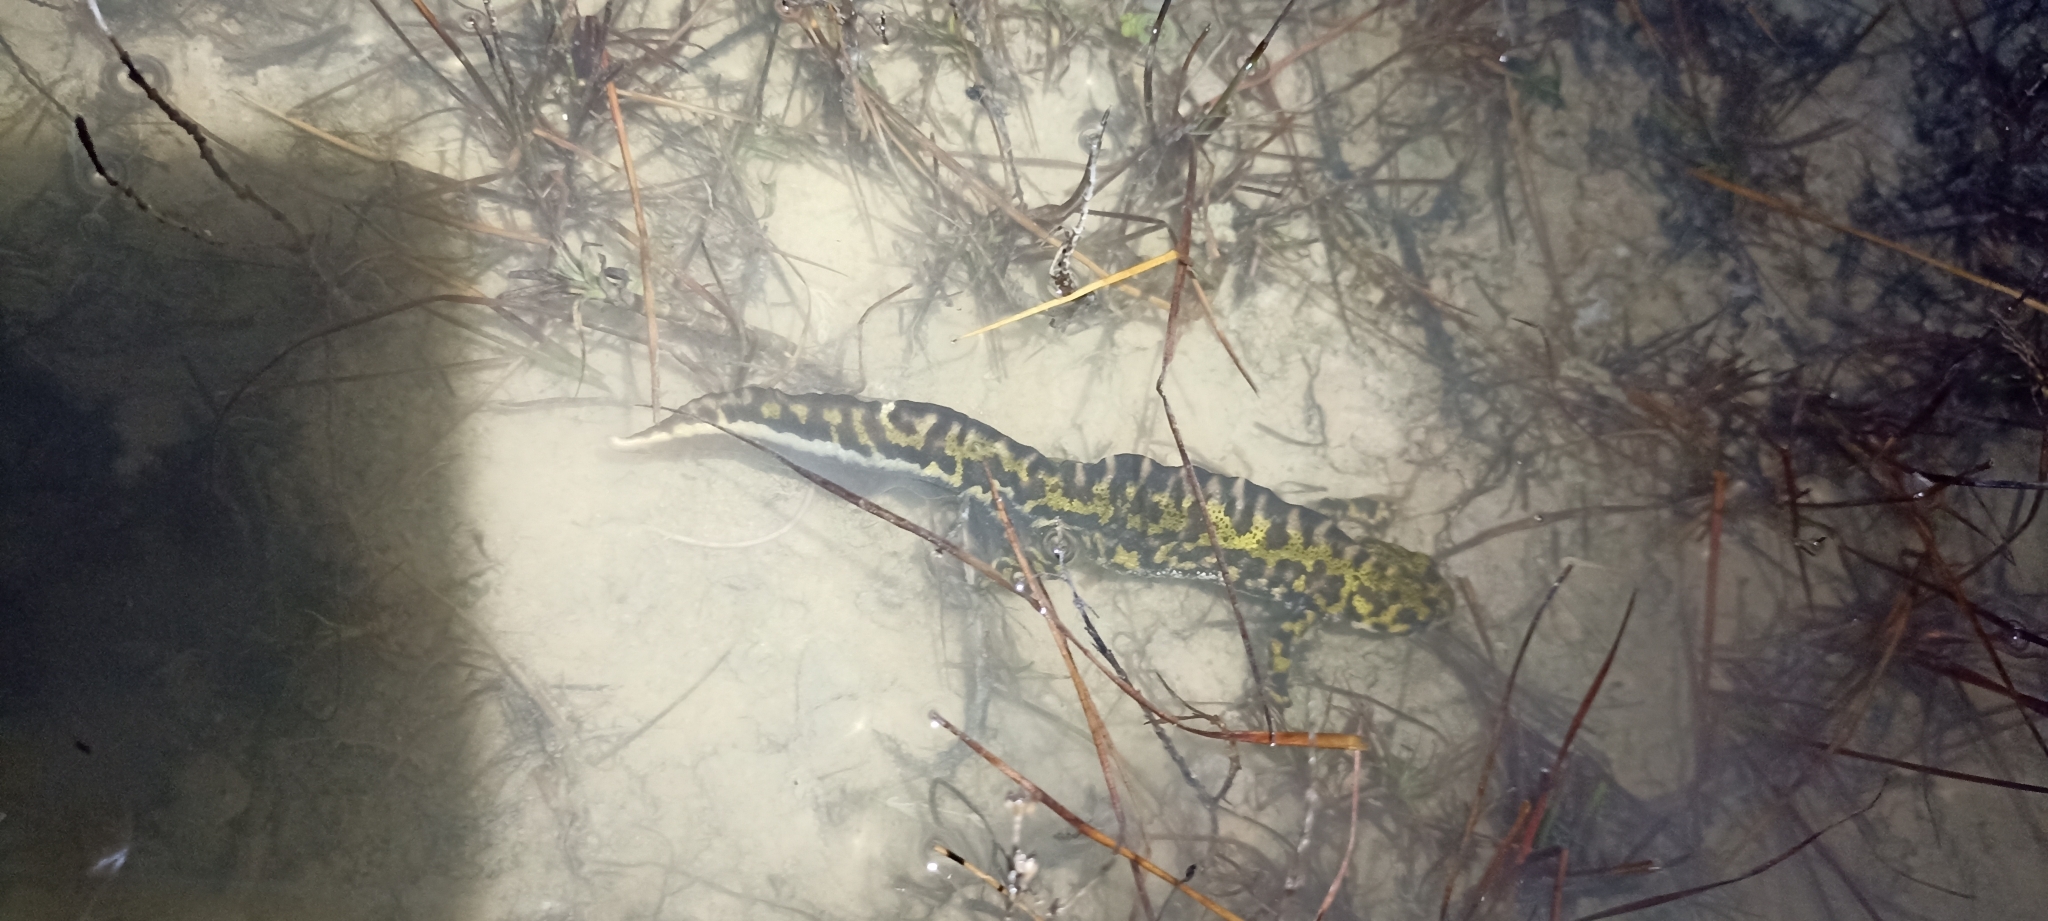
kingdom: Animalia
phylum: Chordata
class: Amphibia
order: Caudata
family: Salamandridae
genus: Triturus
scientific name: Triturus marmoratus
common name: Marbled newt
